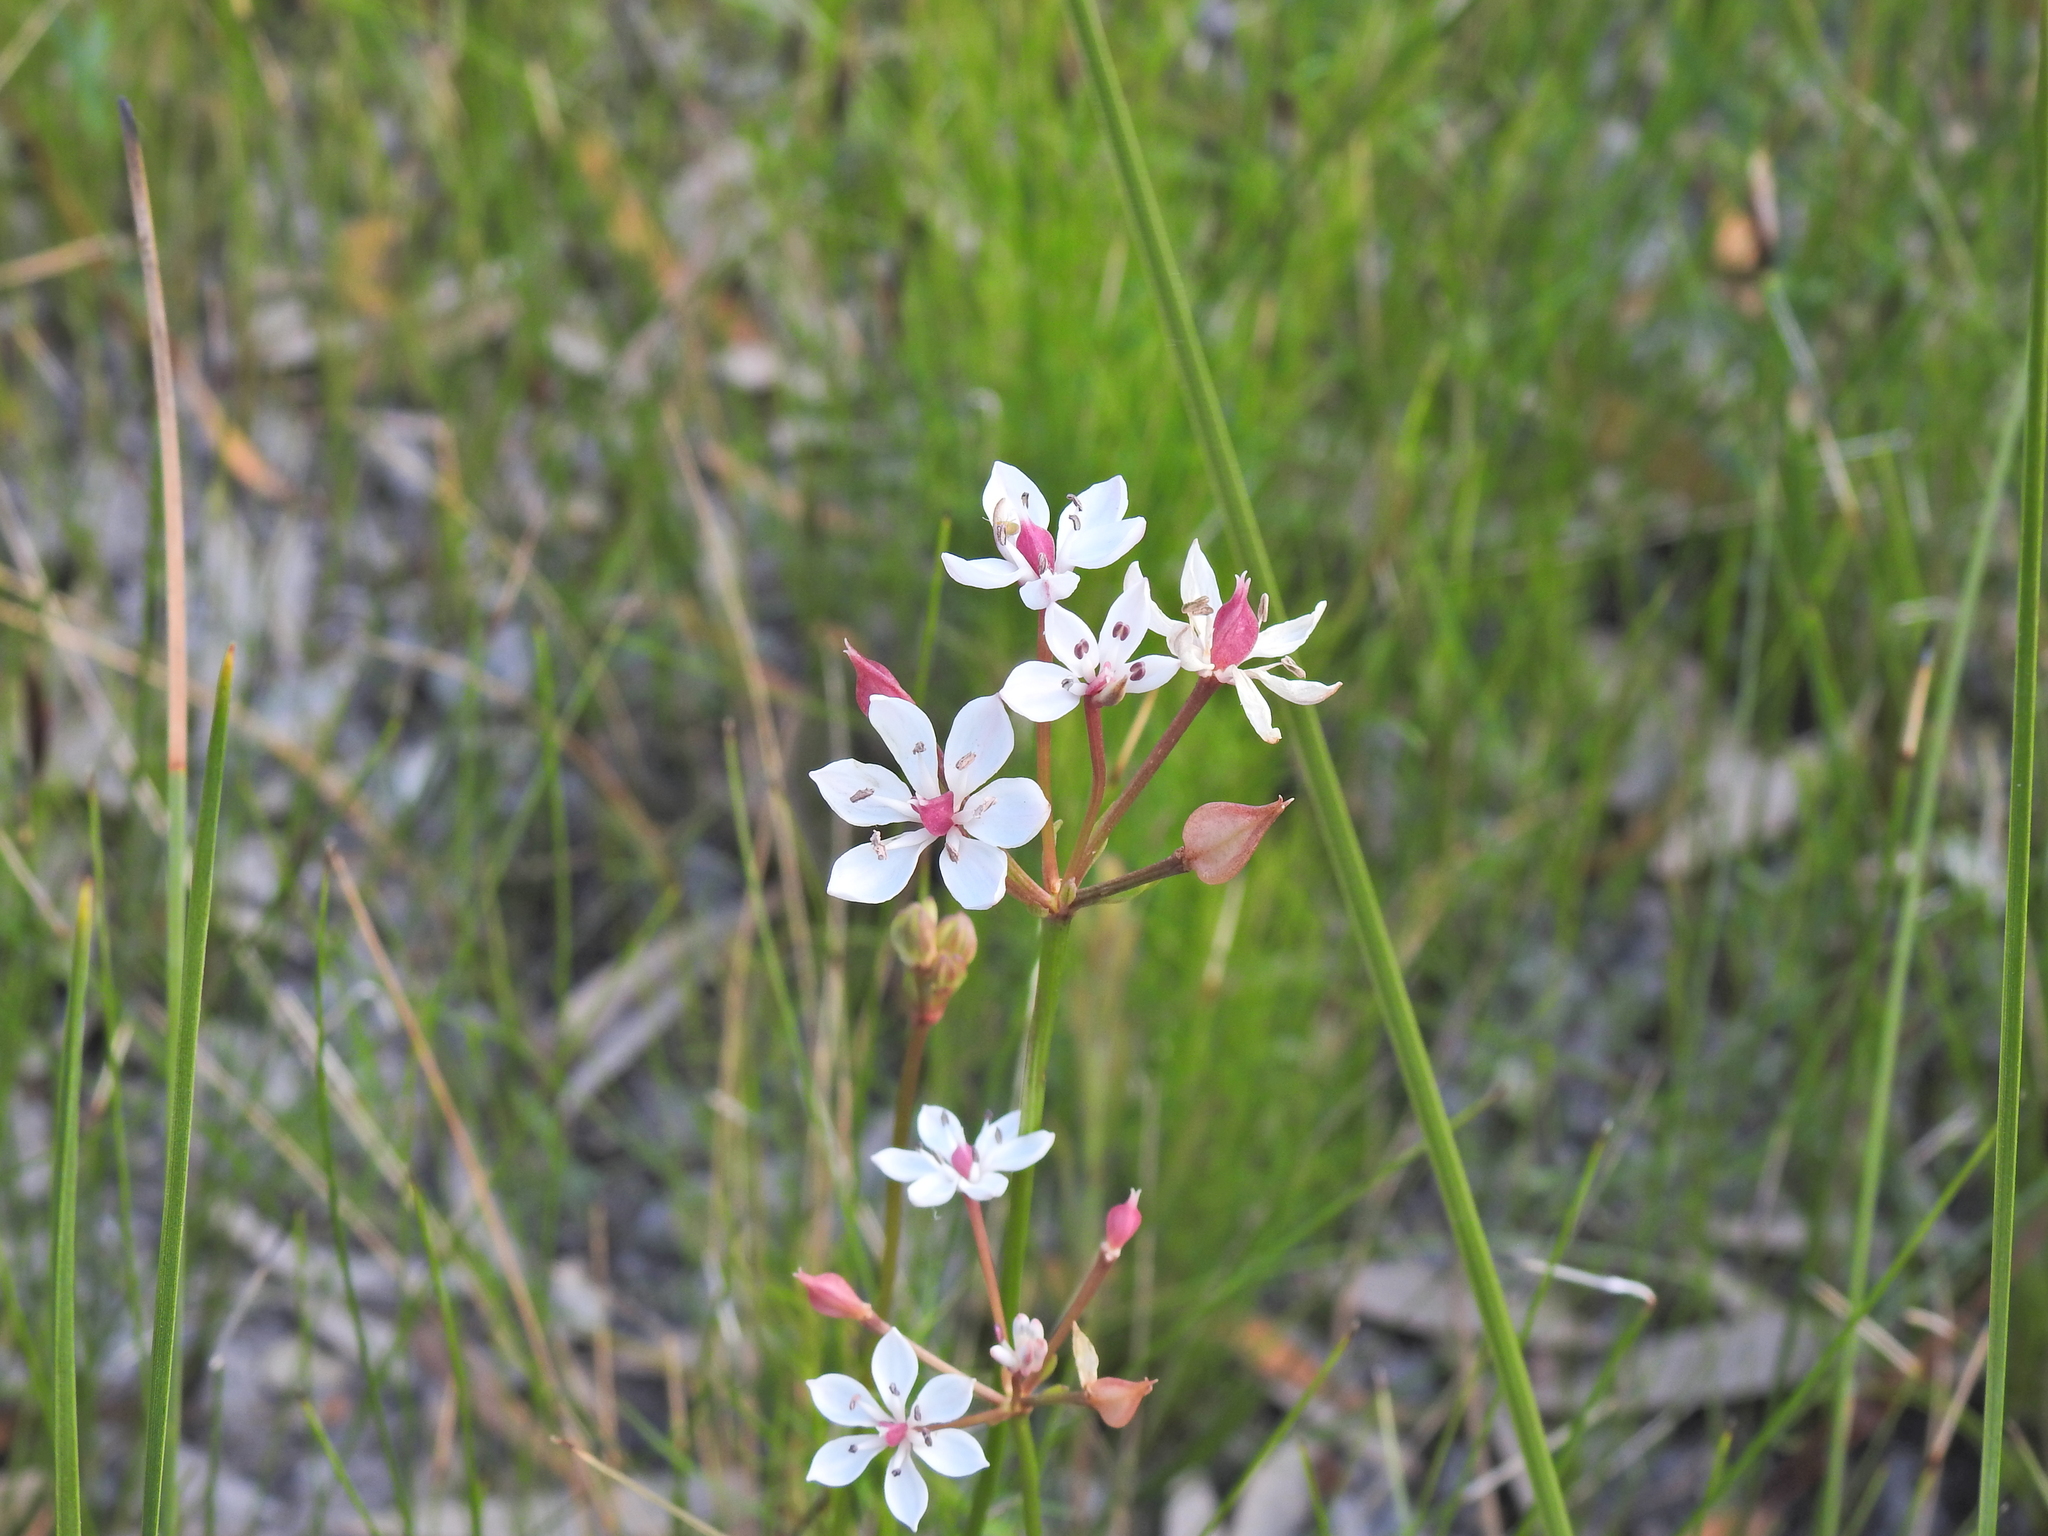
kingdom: Plantae
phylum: Tracheophyta
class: Liliopsida
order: Liliales
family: Colchicaceae
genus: Burchardia
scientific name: Burchardia umbellata
